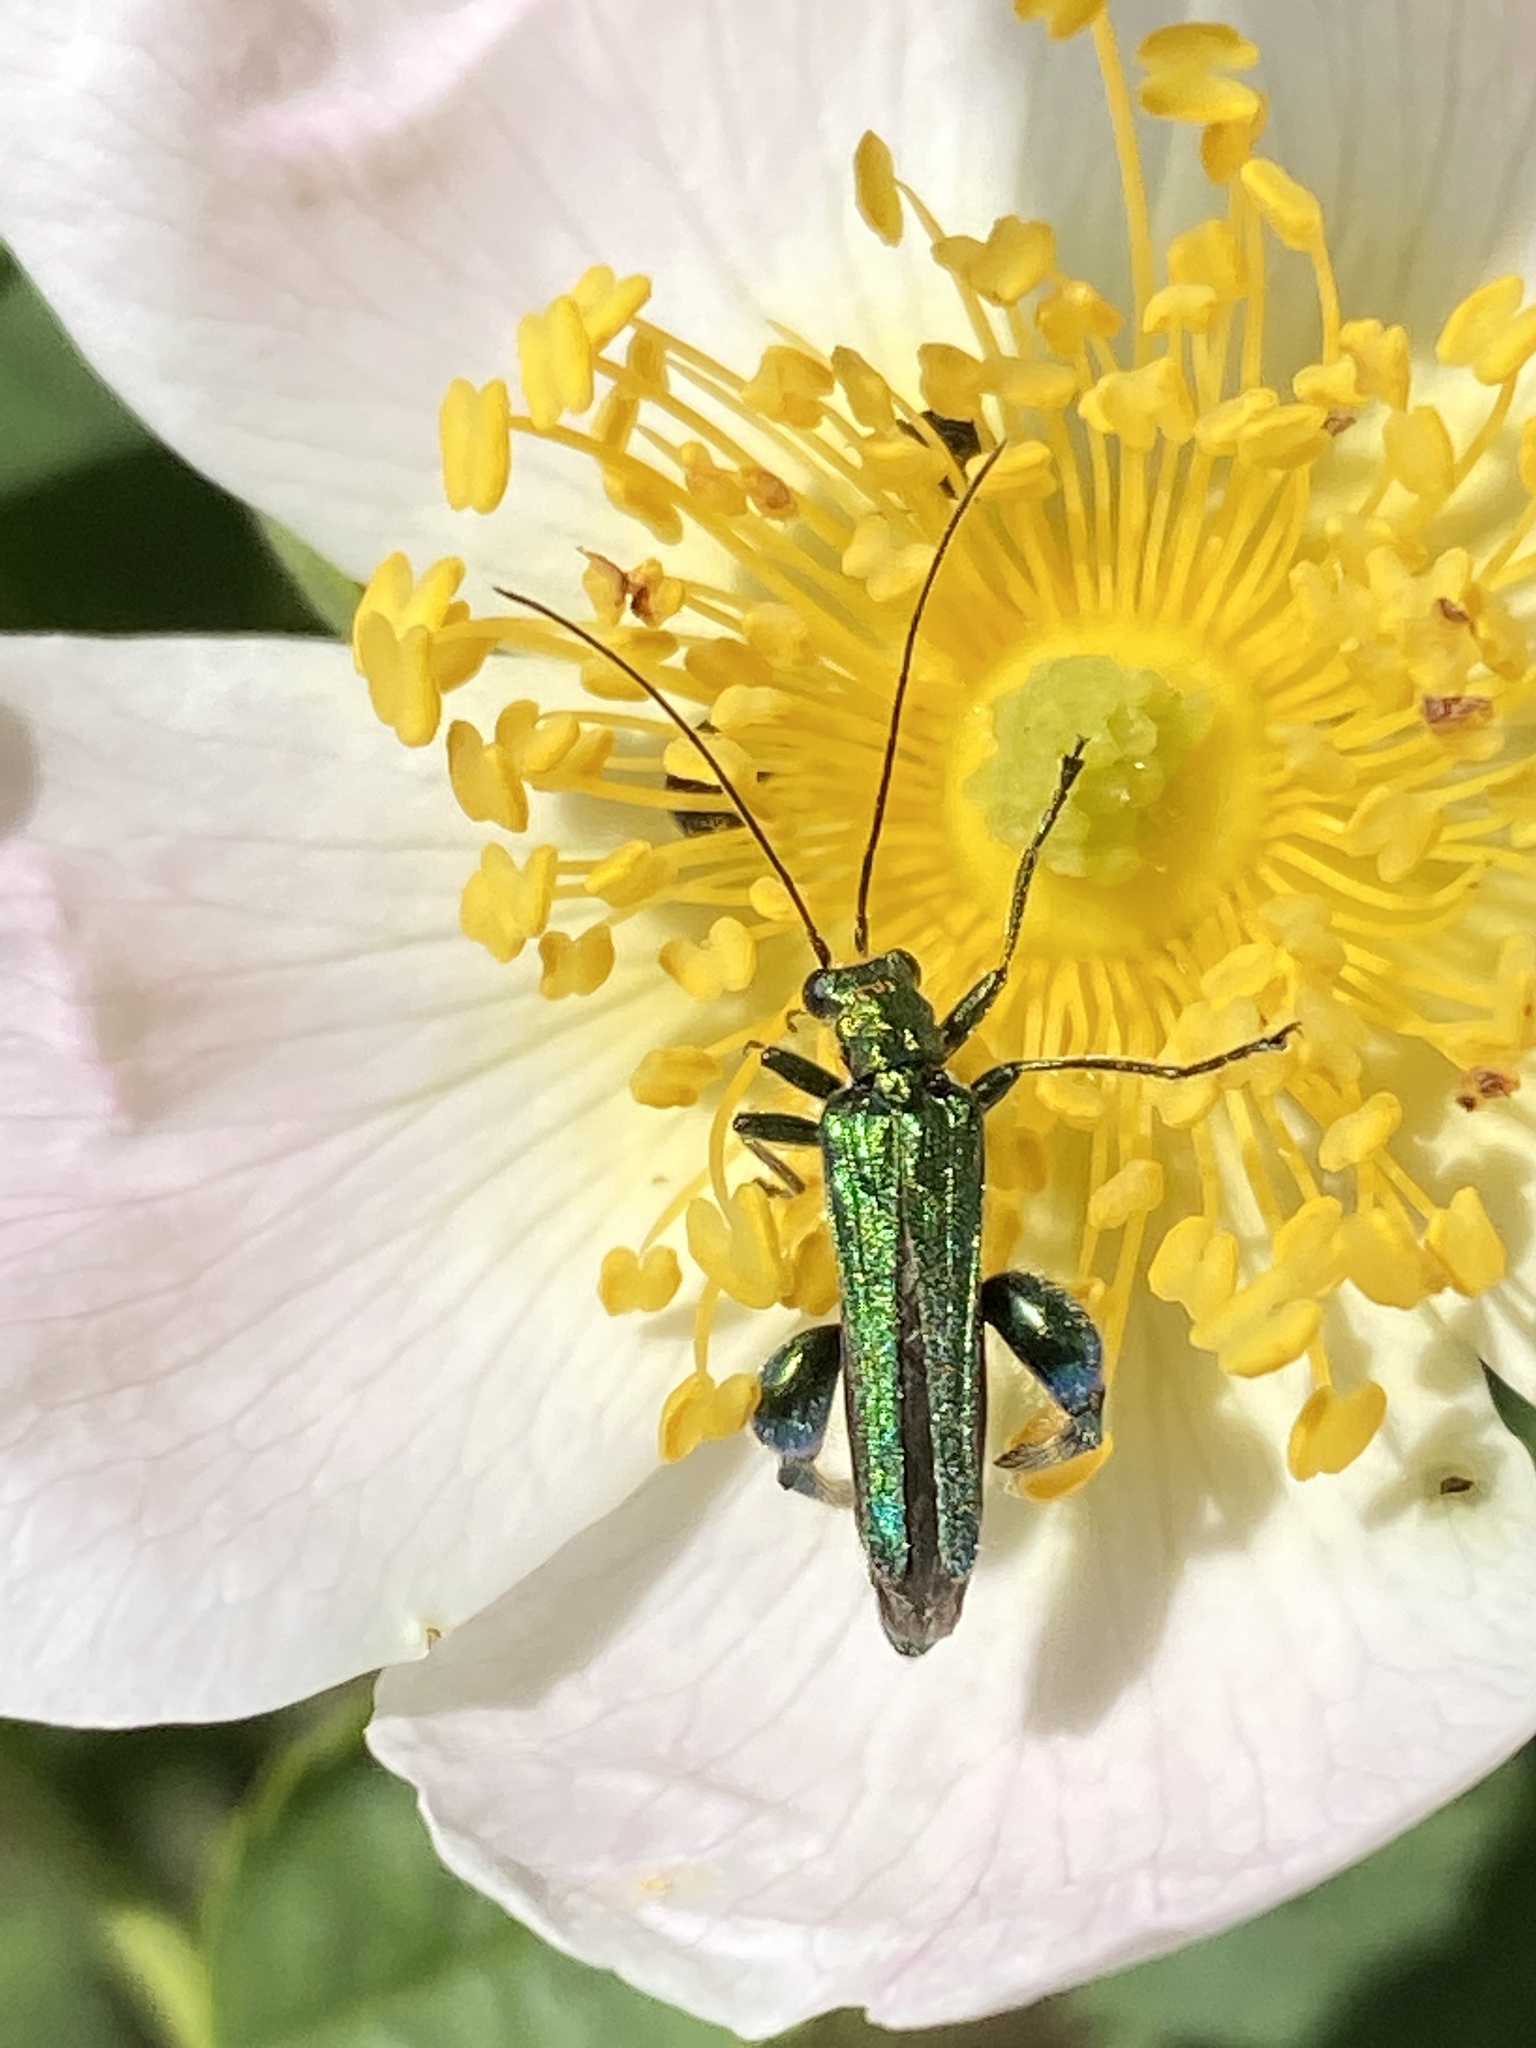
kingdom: Animalia
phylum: Arthropoda
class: Insecta
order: Coleoptera
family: Oedemeridae
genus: Oedemera
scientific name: Oedemera nobilis
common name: Swollen-thighed beetle
